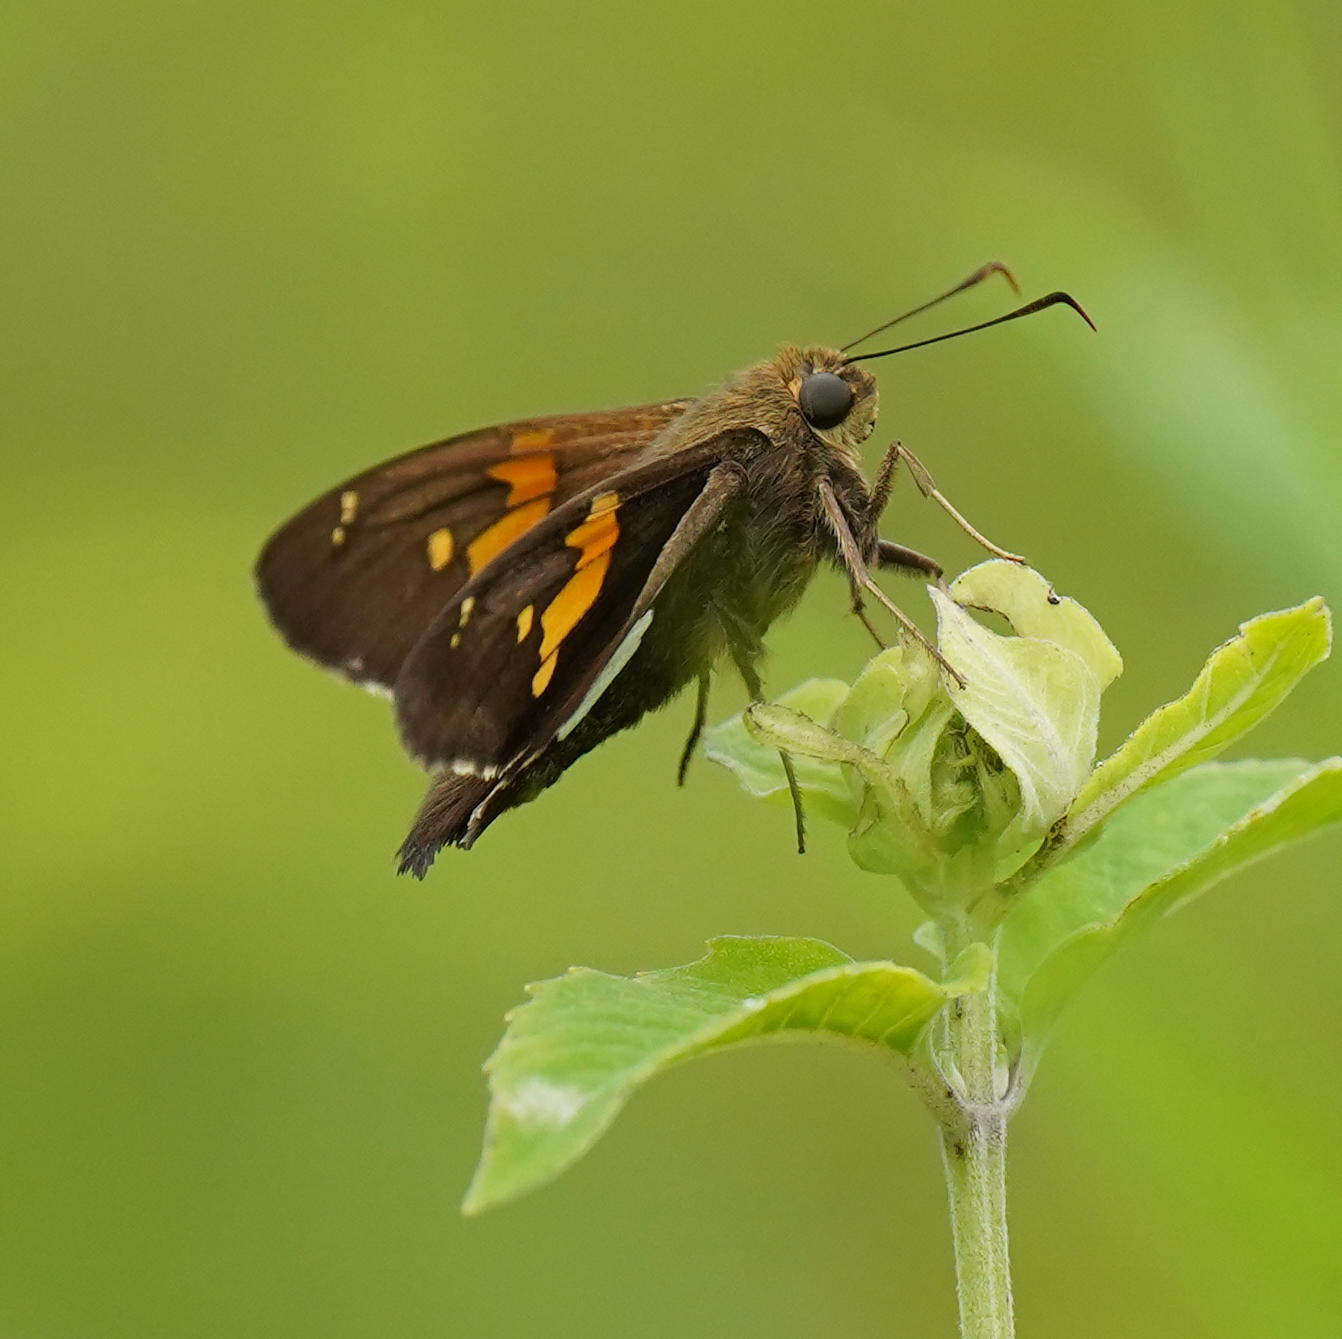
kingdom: Animalia
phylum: Arthropoda
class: Insecta
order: Lepidoptera
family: Hesperiidae
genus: Epargyreus
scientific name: Epargyreus clarus
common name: Silver-spotted skipper
